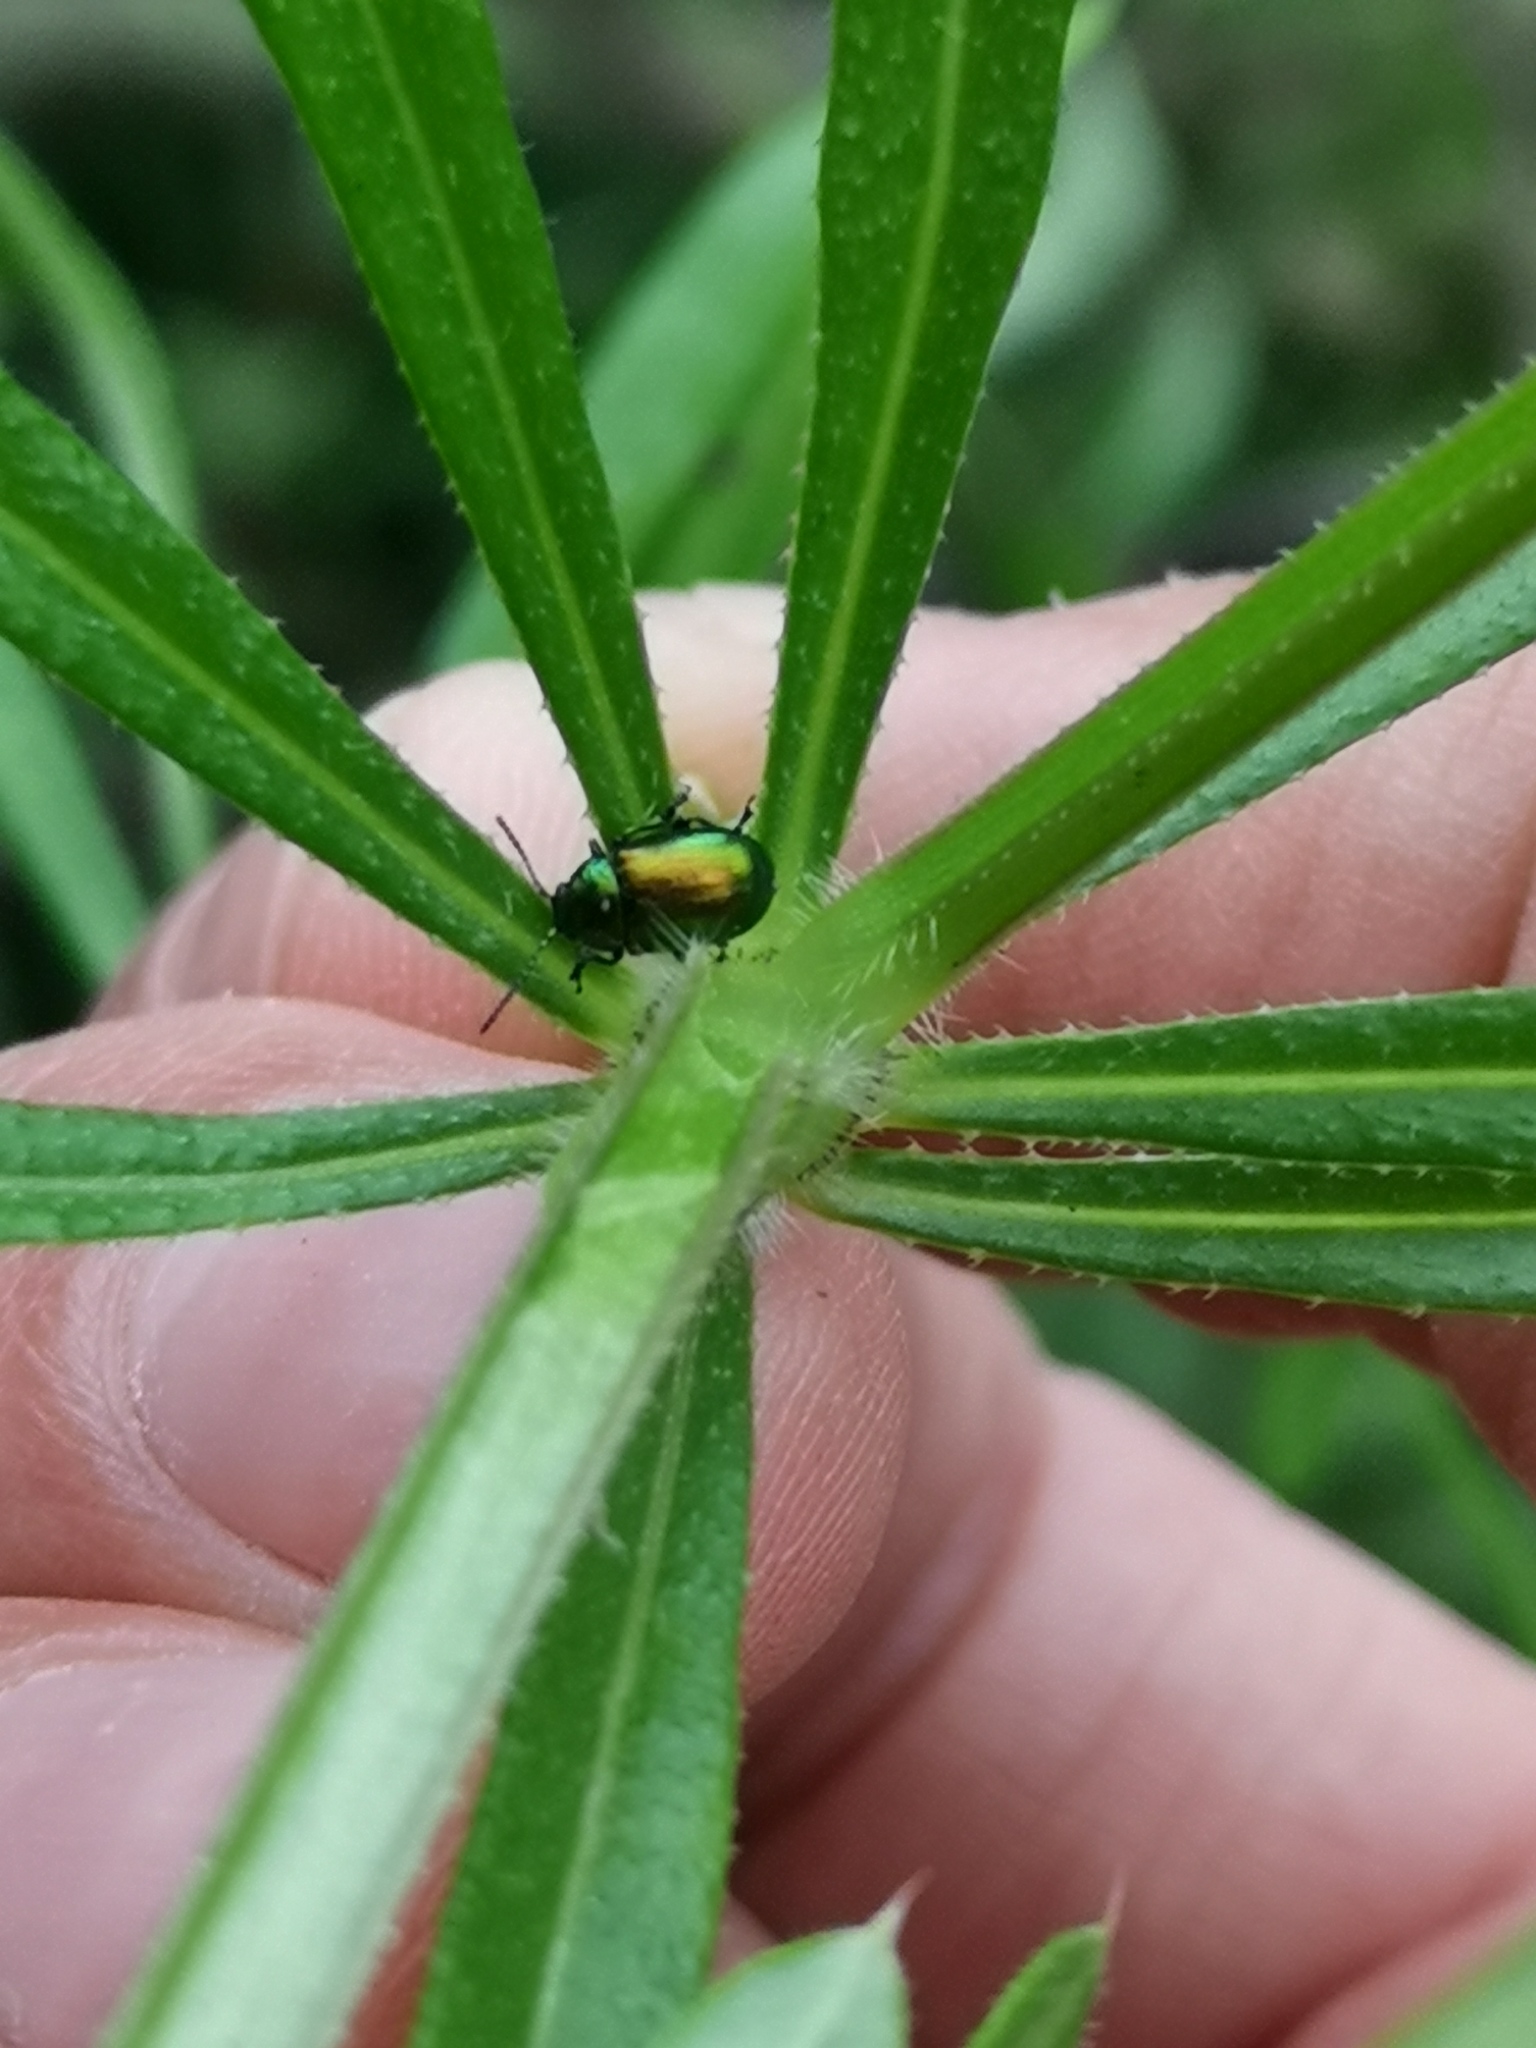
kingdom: Animalia
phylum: Arthropoda
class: Insecta
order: Coleoptera
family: Chrysomelidae
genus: Gastrophysa
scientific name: Gastrophysa viridula
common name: Green dock beetle
